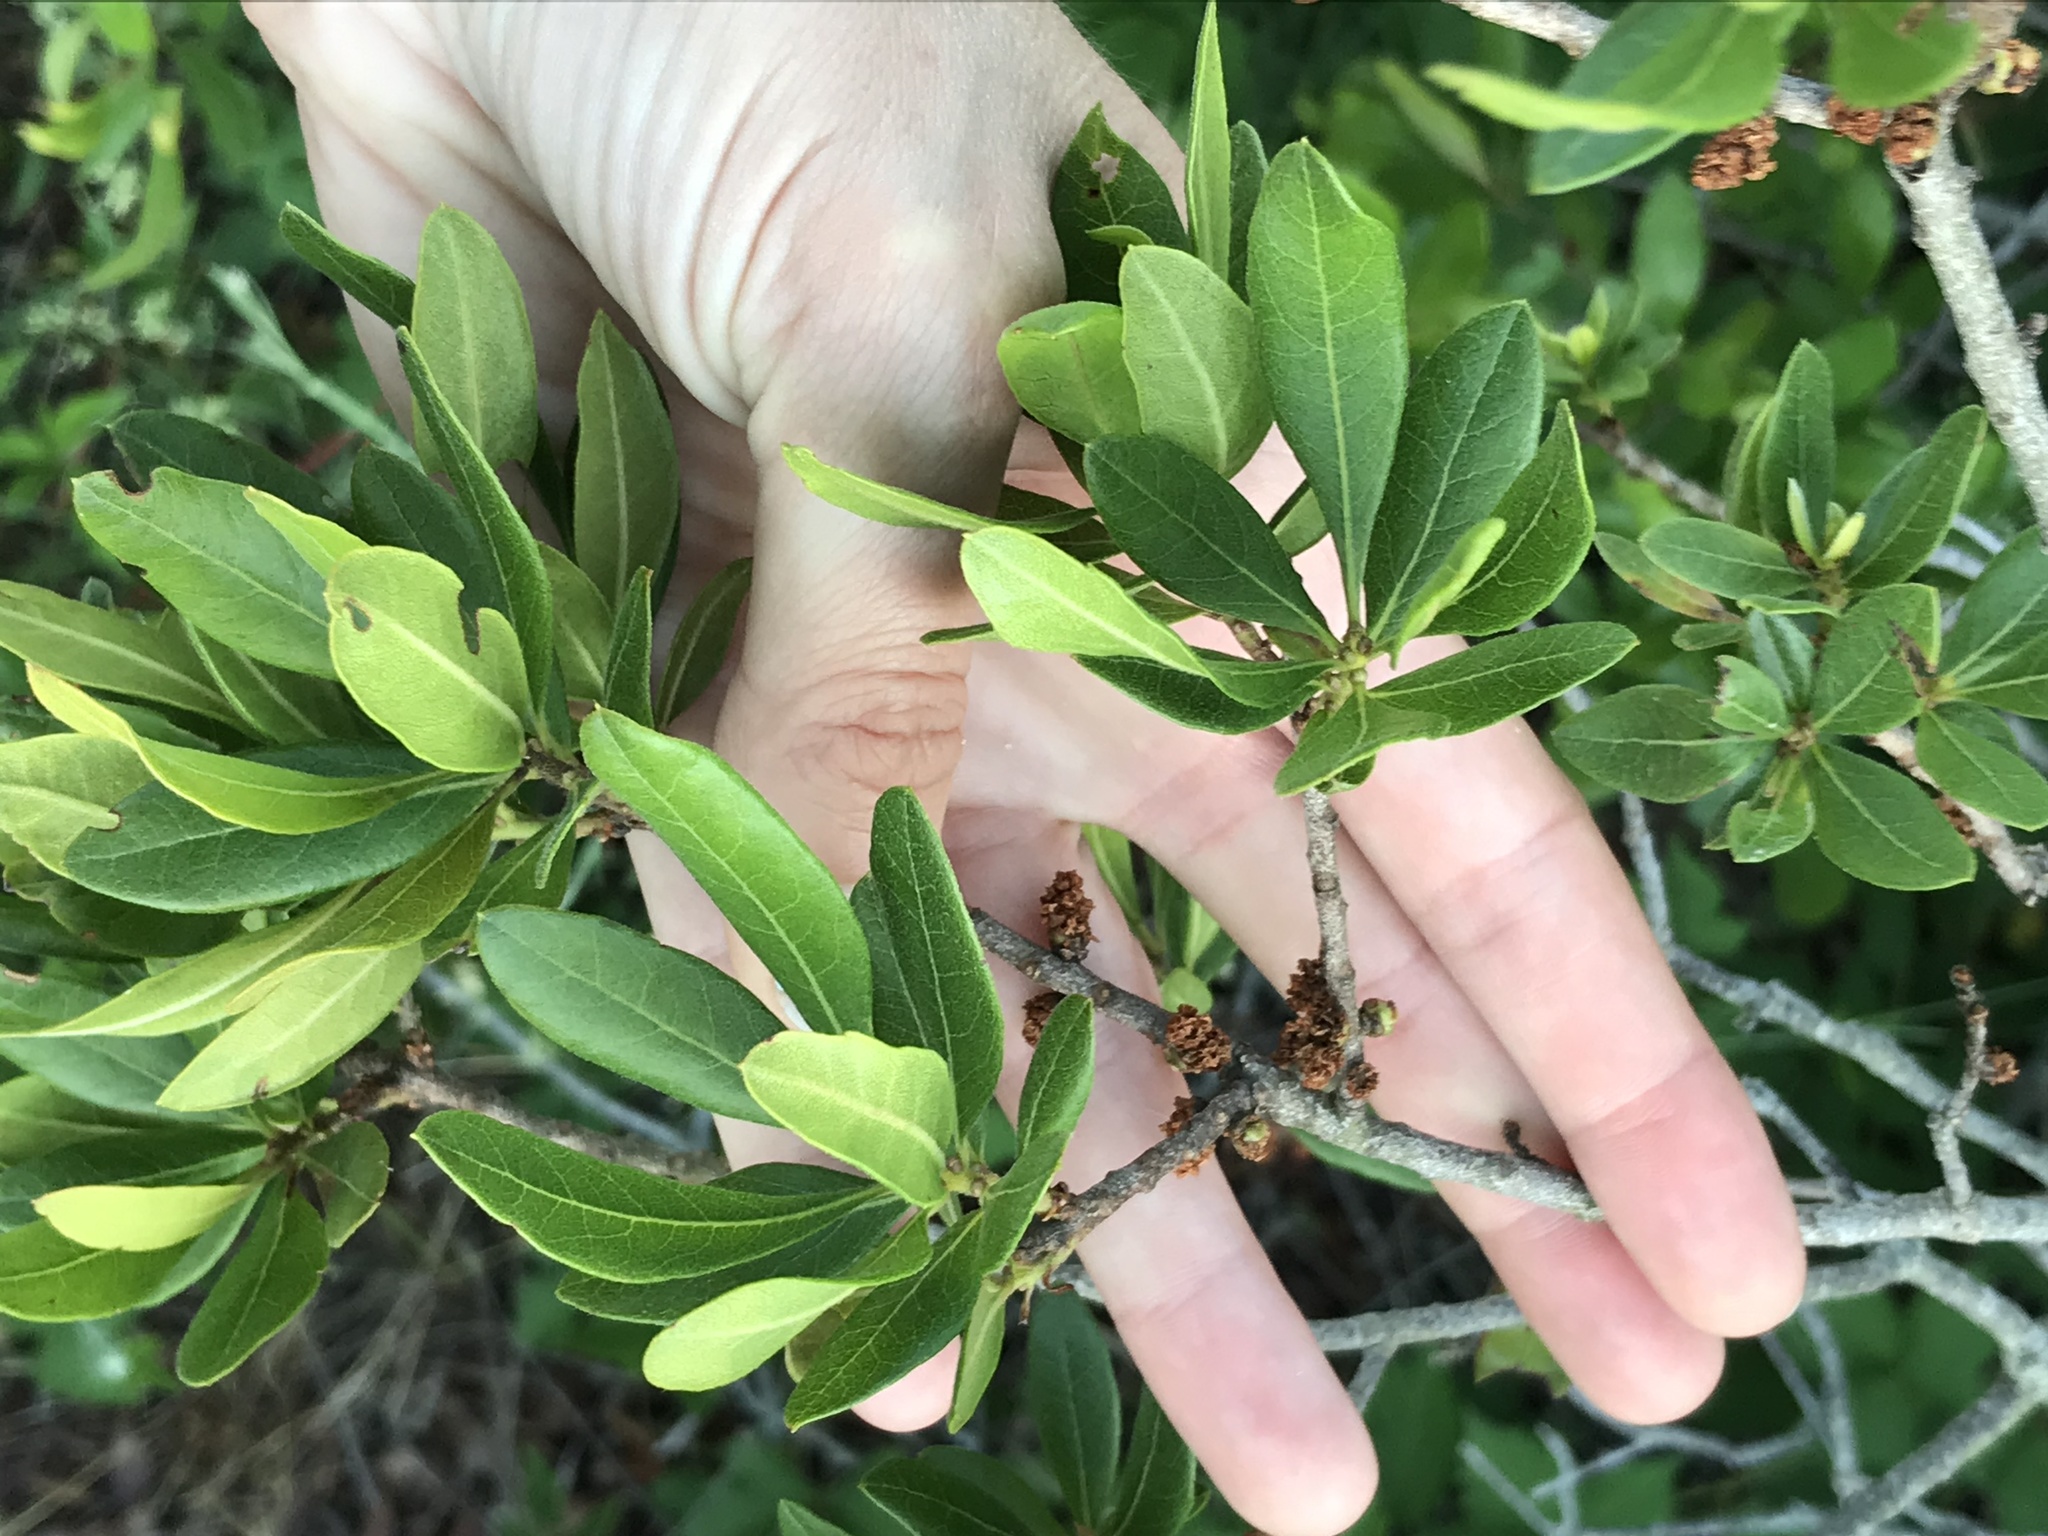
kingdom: Plantae
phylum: Tracheophyta
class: Magnoliopsida
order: Fagales
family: Myricaceae
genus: Morella
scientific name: Morella pensylvanica
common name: Northern bayberry
